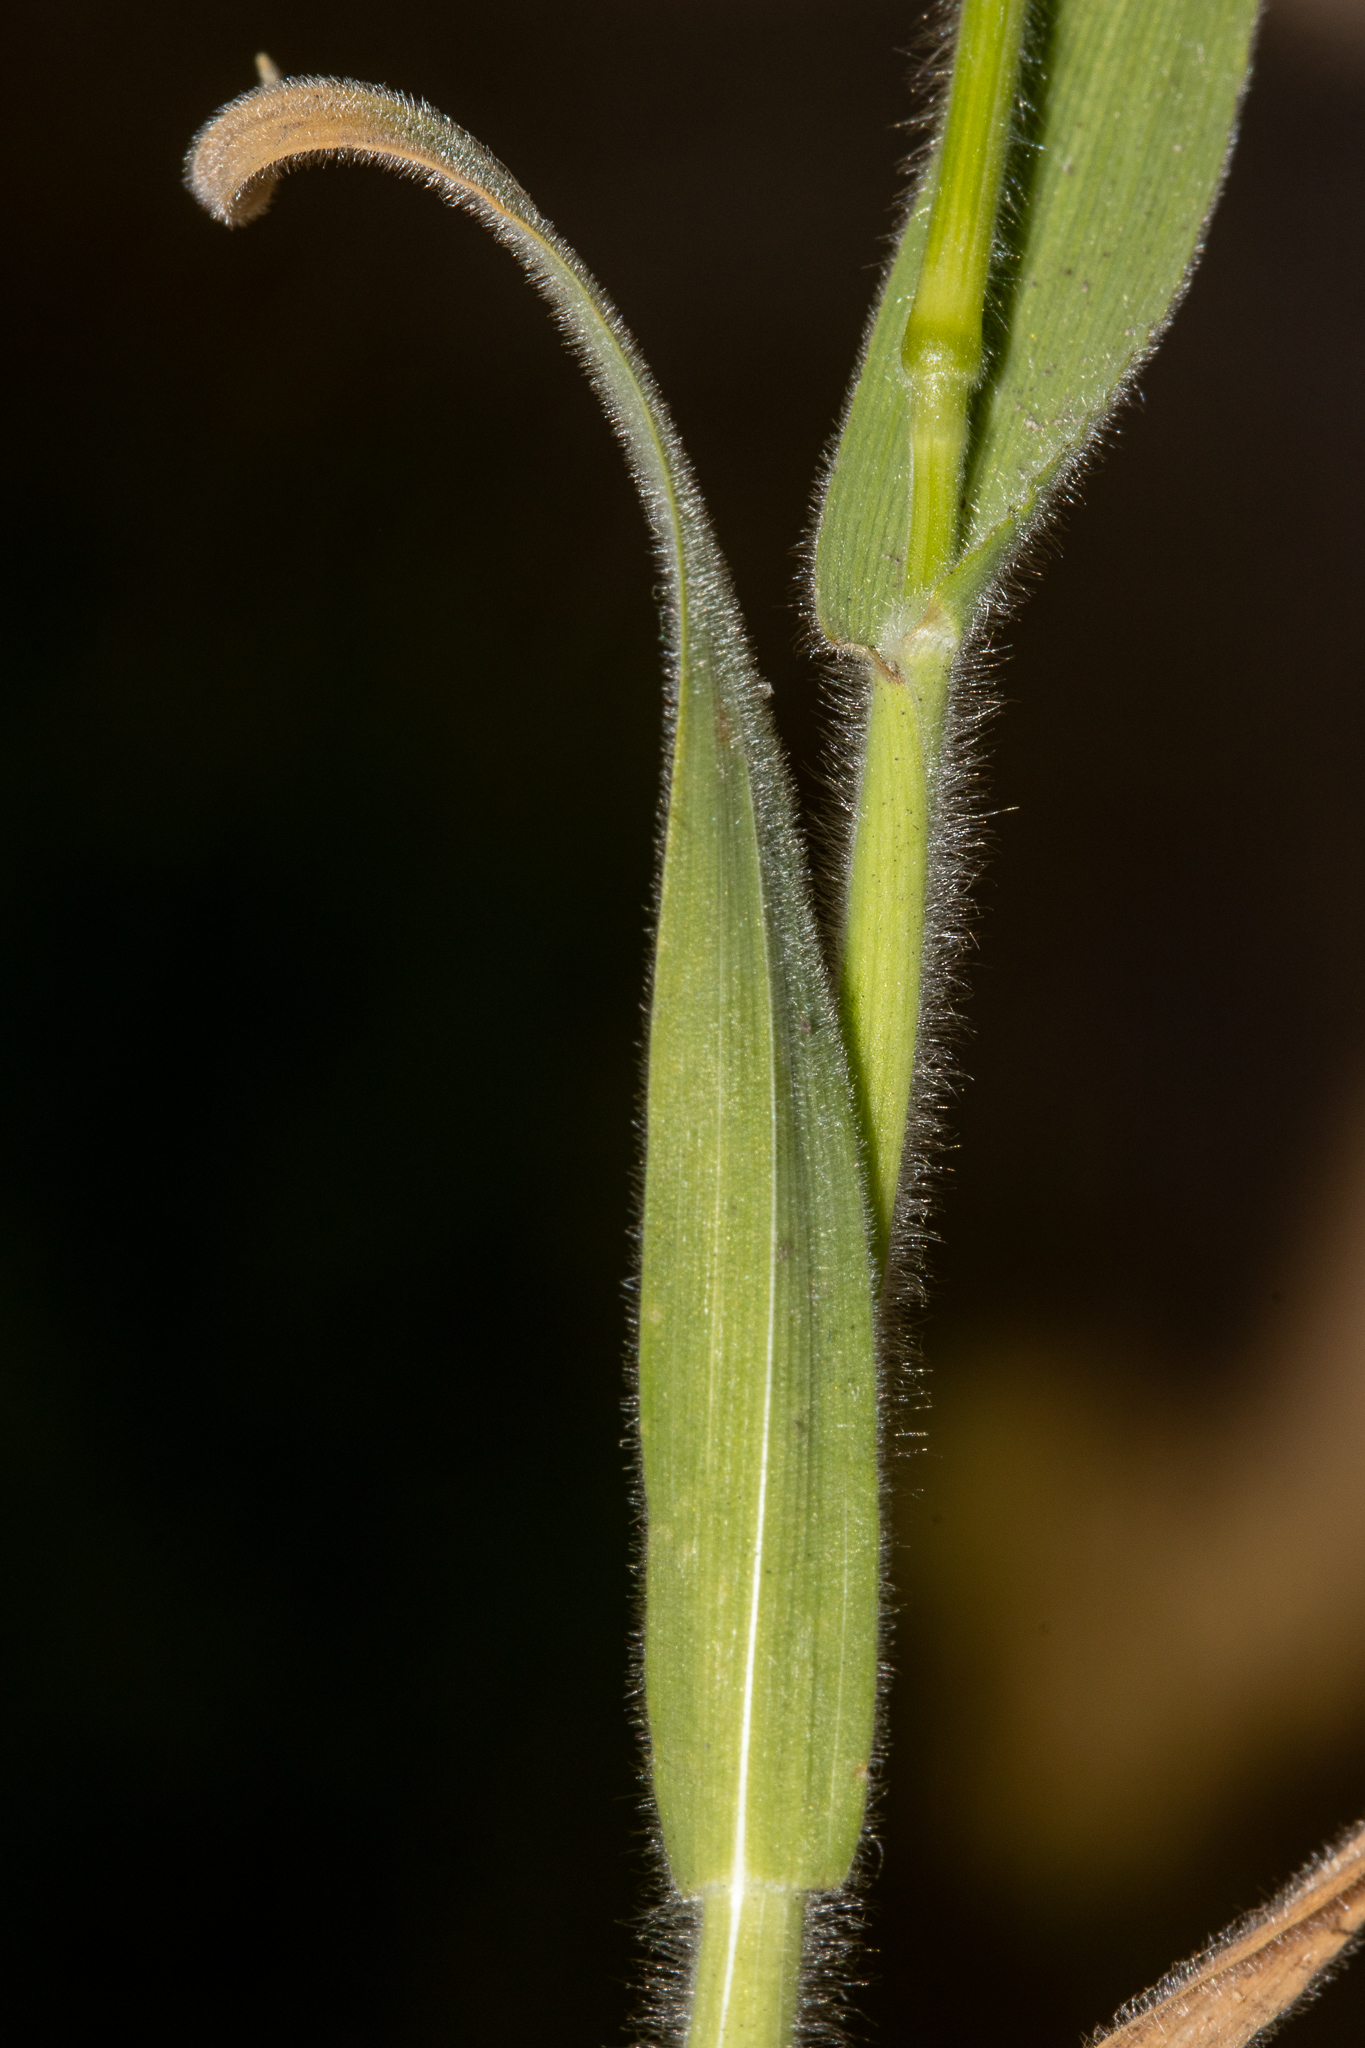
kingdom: Plantae
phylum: Tracheophyta
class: Liliopsida
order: Poales
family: Poaceae
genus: Lagurus
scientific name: Lagurus ovatus
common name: Hare's-tail
